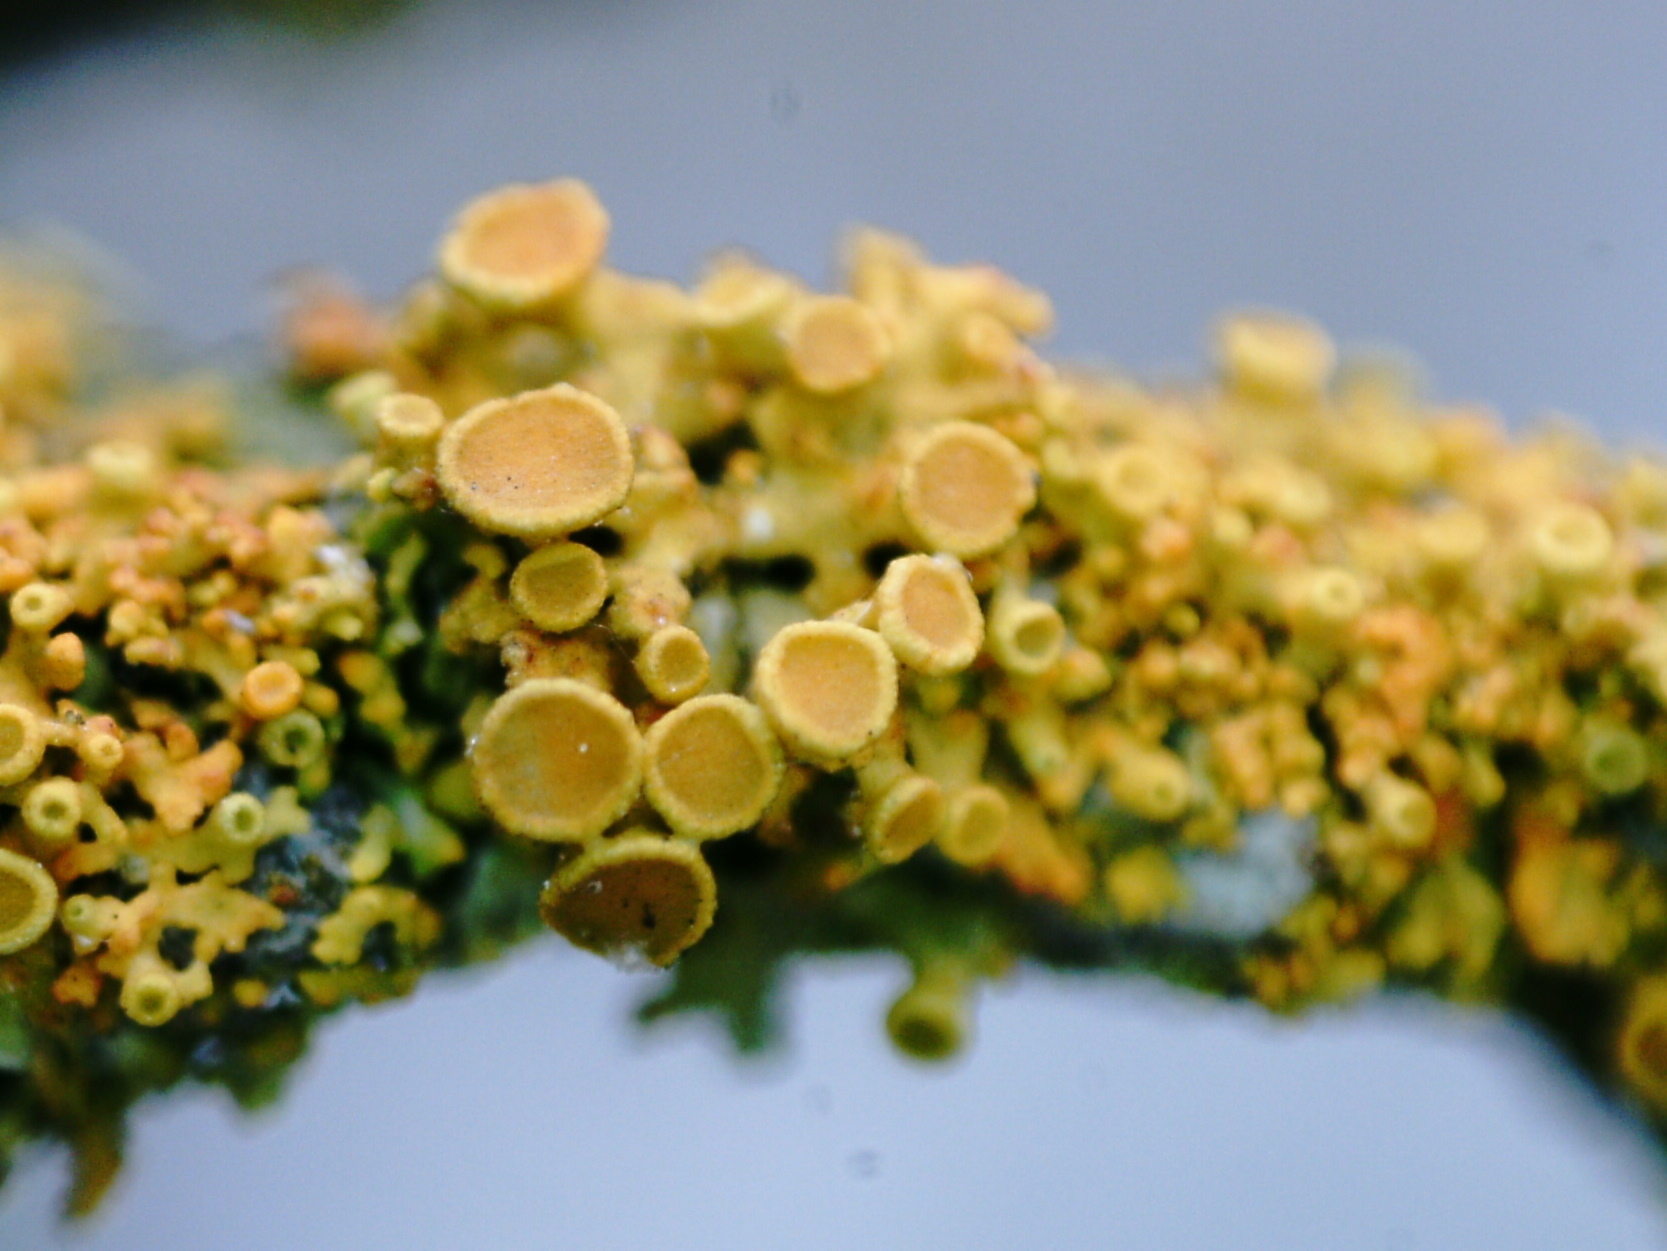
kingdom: Fungi
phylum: Ascomycota
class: Lecanoromycetes
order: Teloschistales
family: Teloschistaceae
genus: Polycauliona
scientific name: Polycauliona polycarpa
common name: Pin-cushion sunburst lichen
